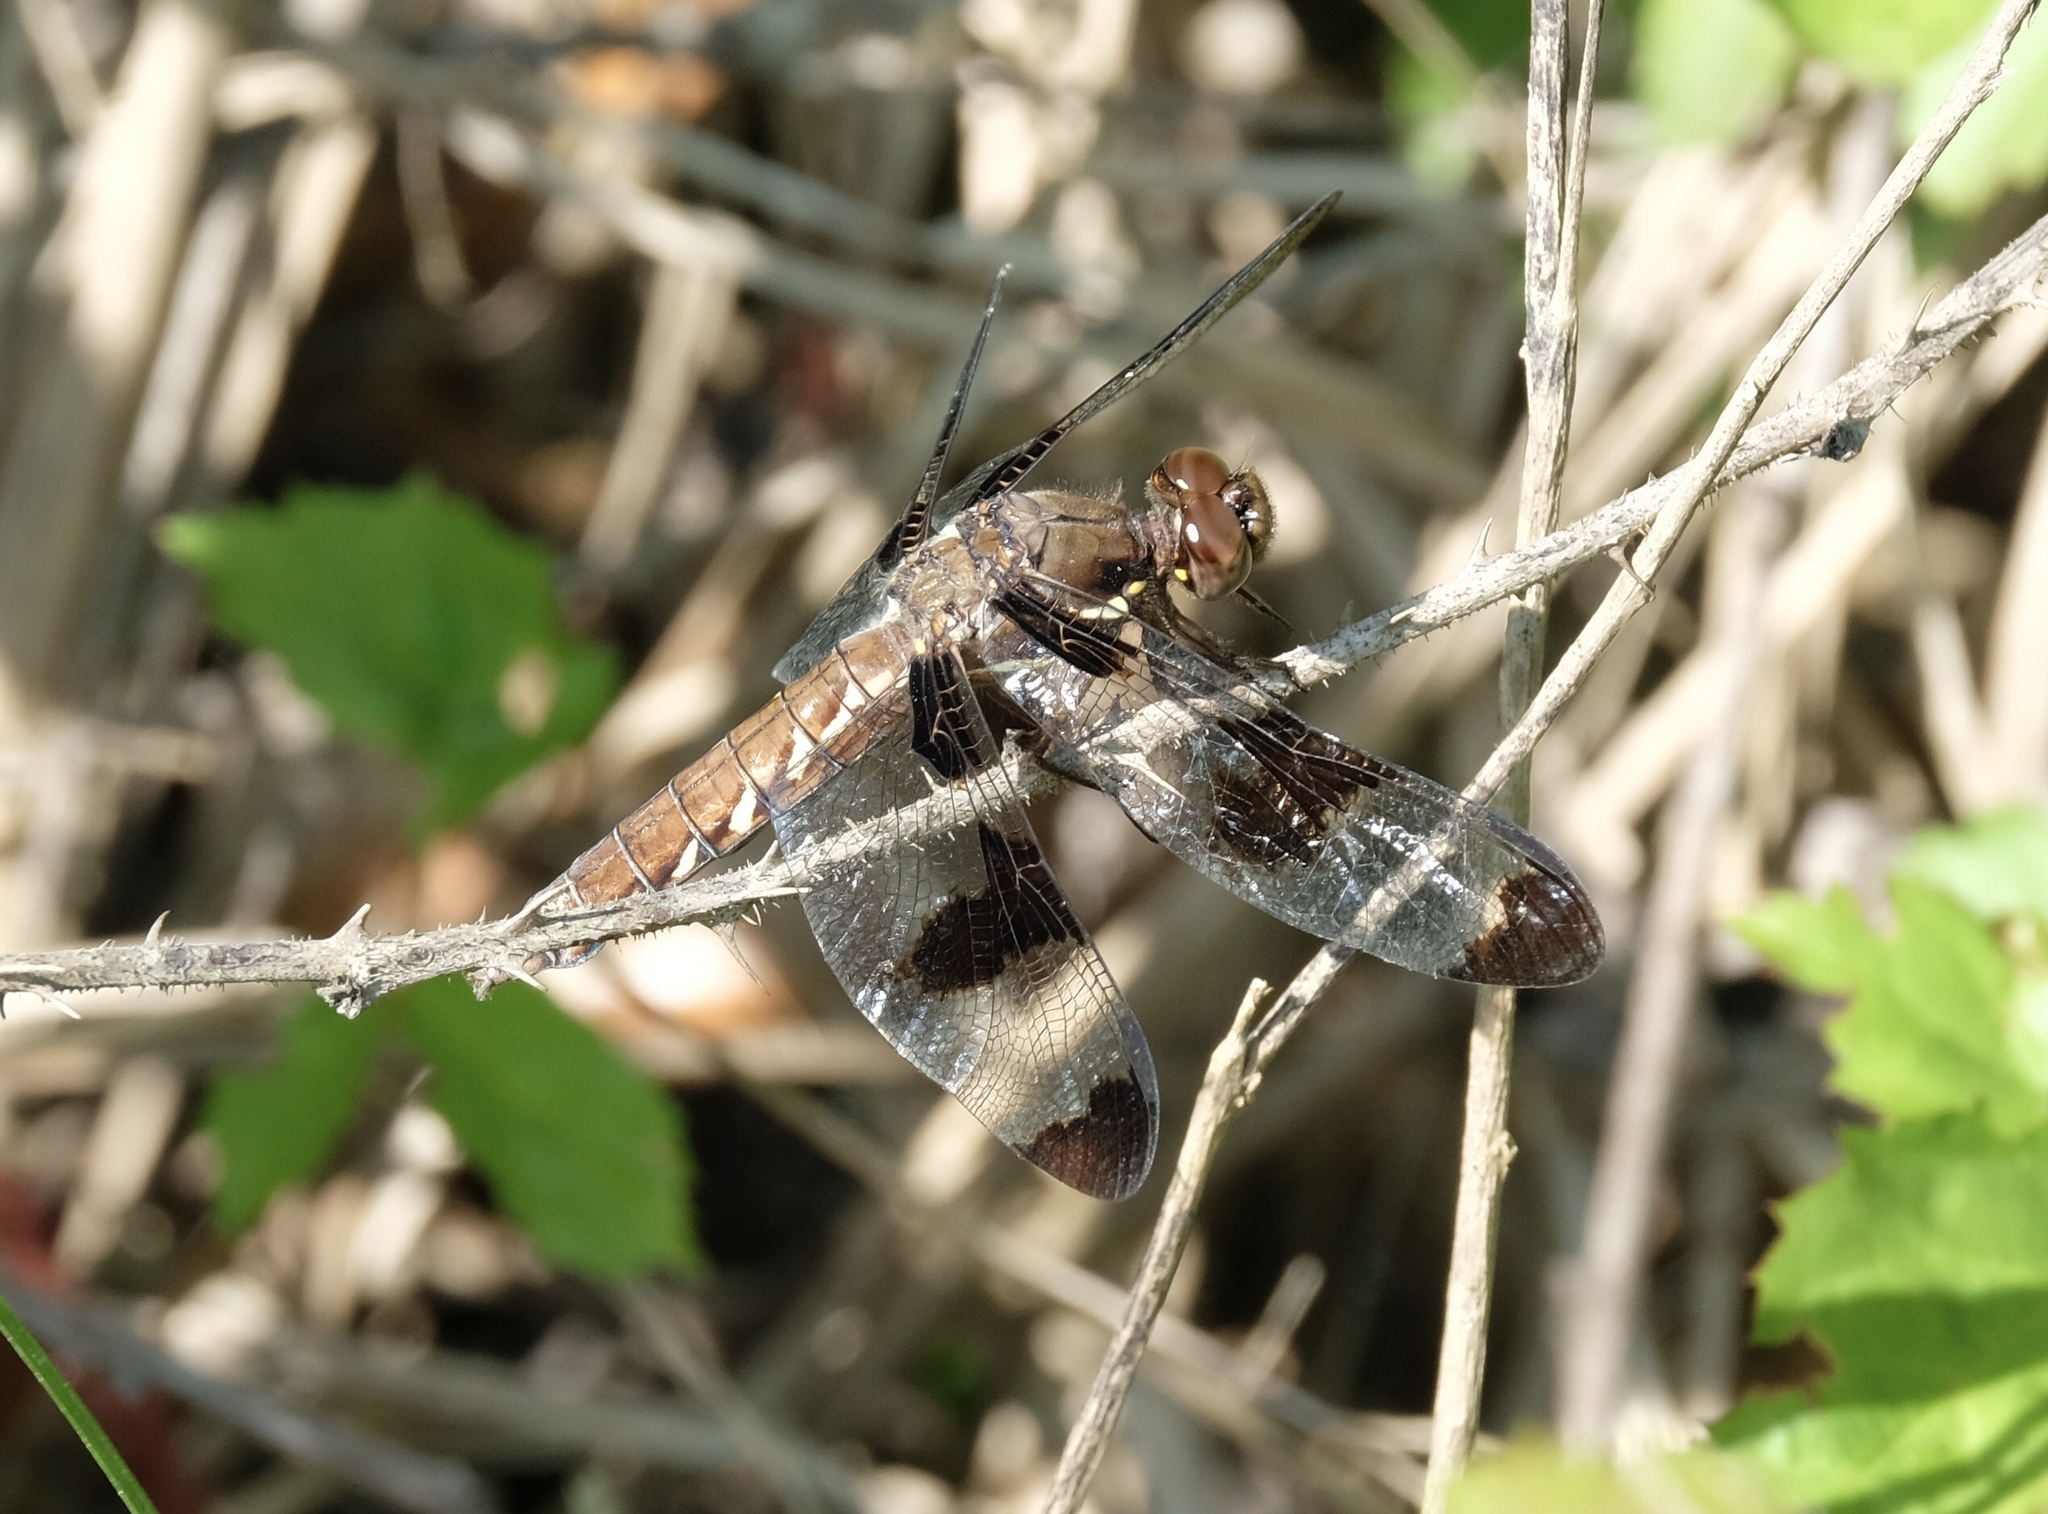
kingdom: Animalia
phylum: Arthropoda
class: Insecta
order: Odonata
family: Libellulidae
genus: Plathemis
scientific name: Plathemis lydia
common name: Common whitetail
